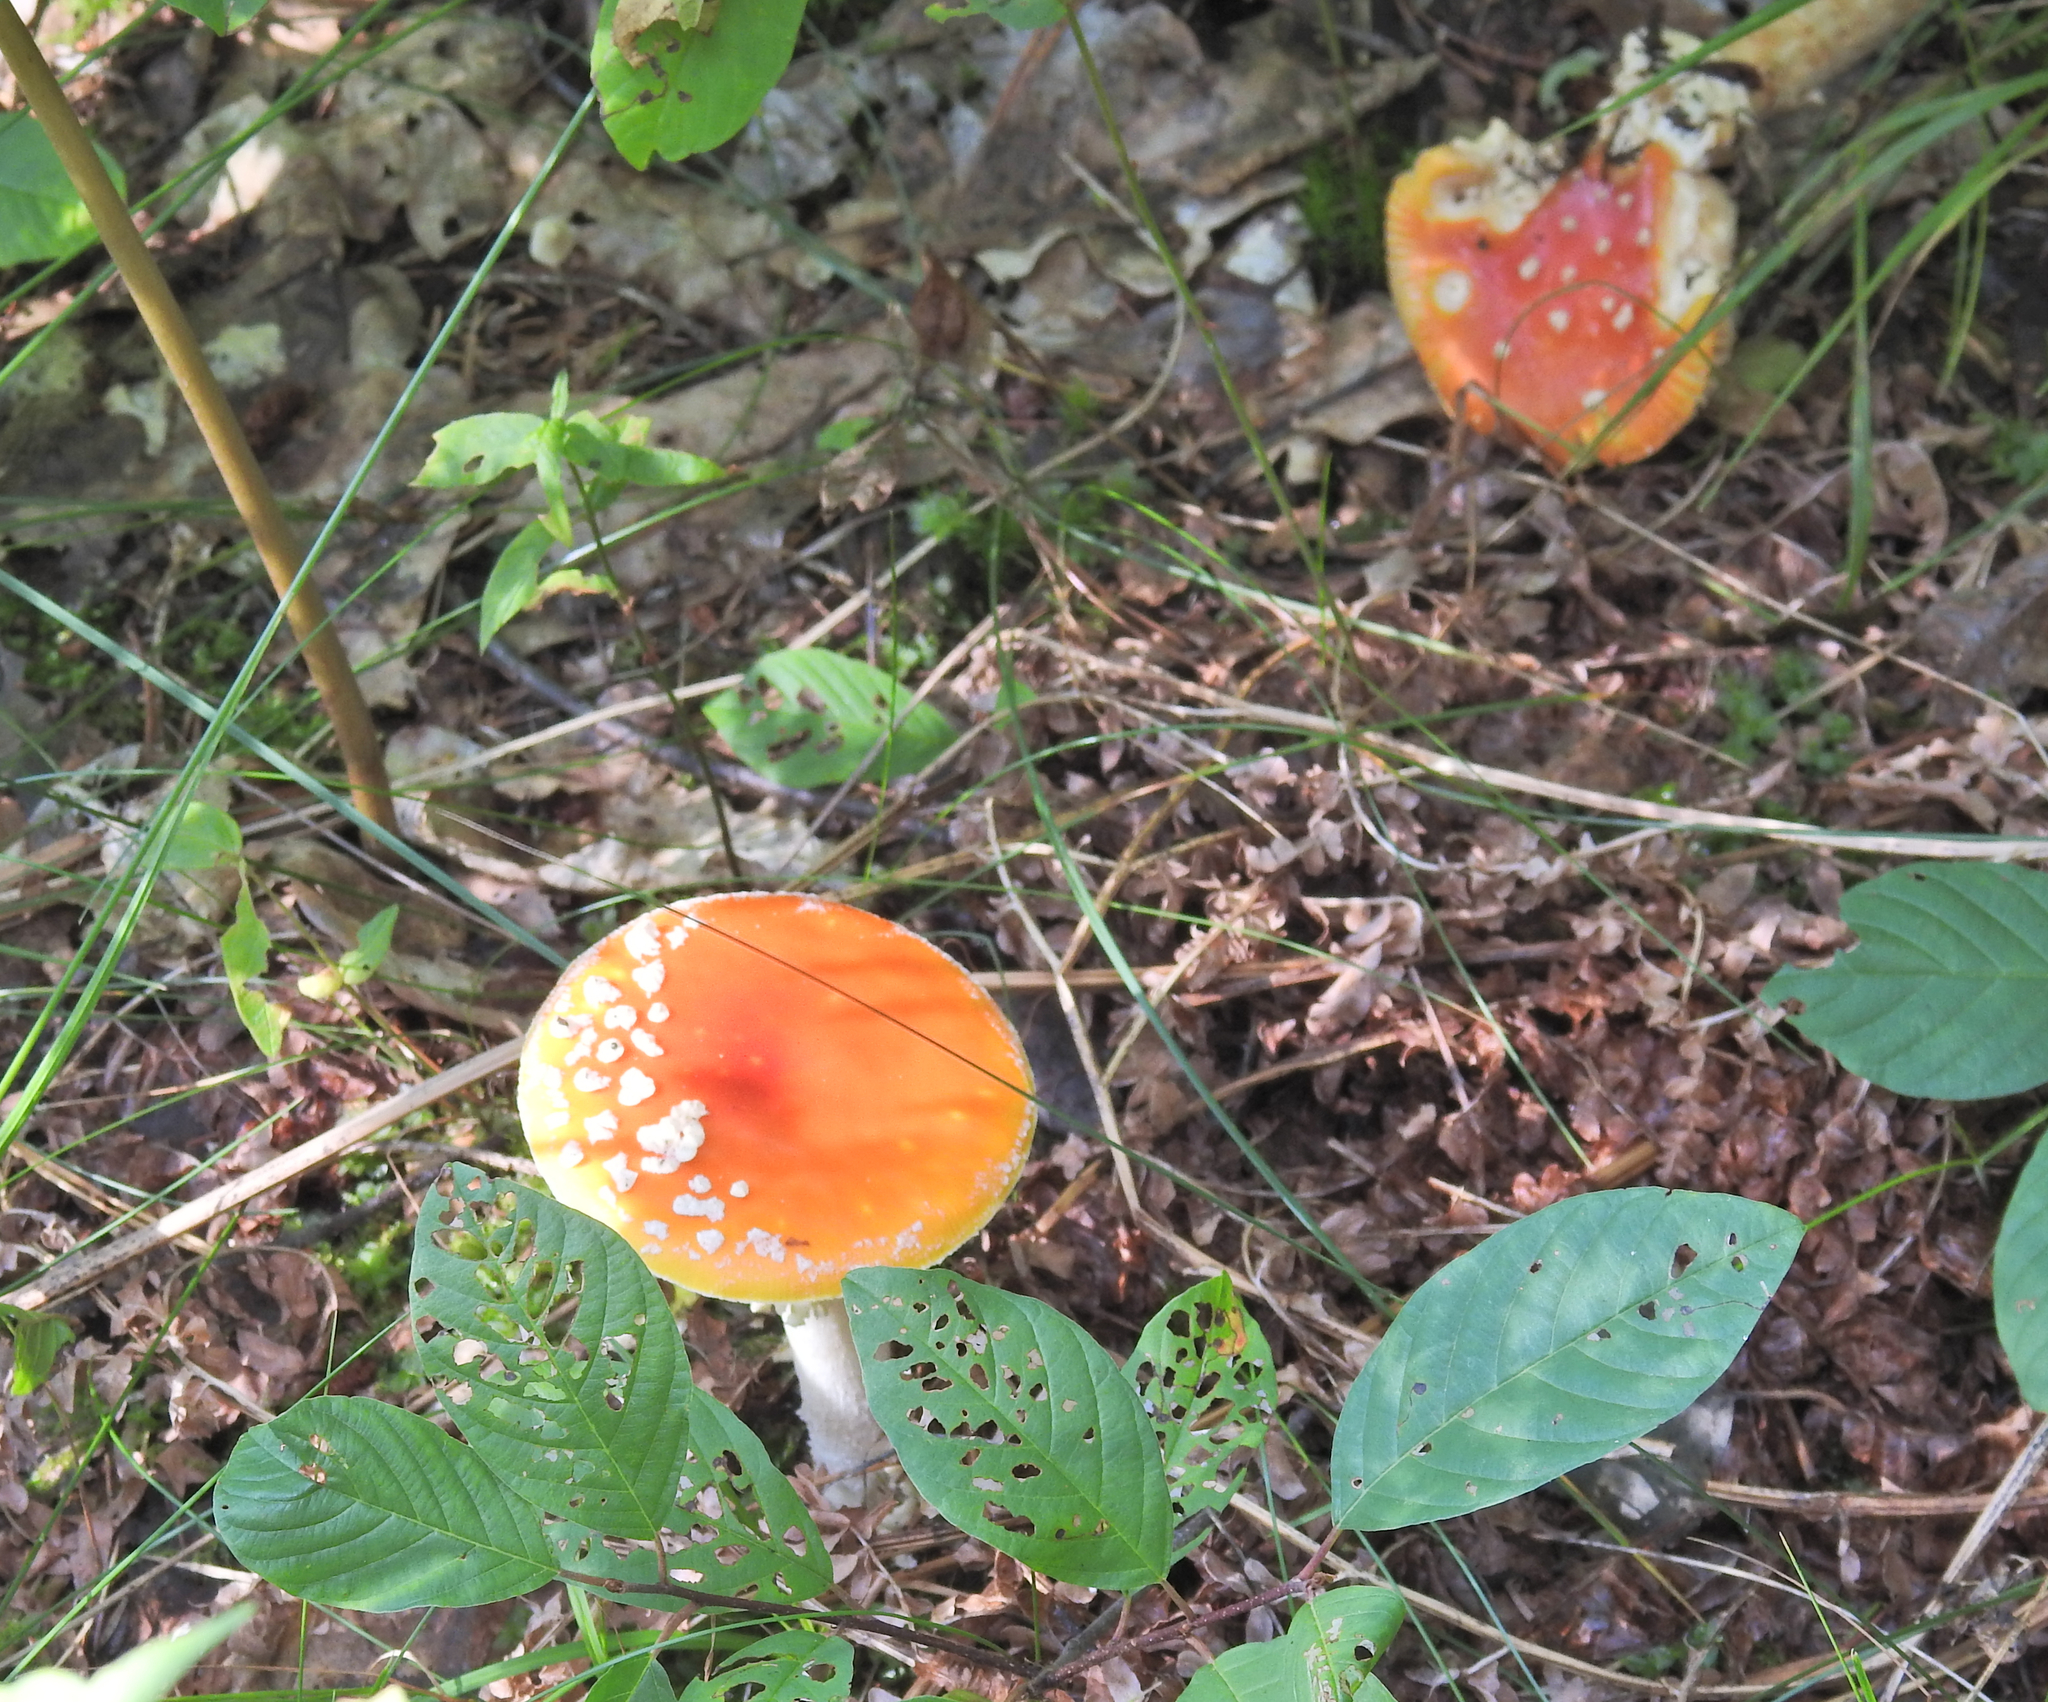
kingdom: Fungi
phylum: Basidiomycota
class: Agaricomycetes
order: Agaricales
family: Amanitaceae
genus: Amanita
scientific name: Amanita muscaria
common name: Fly agaric
